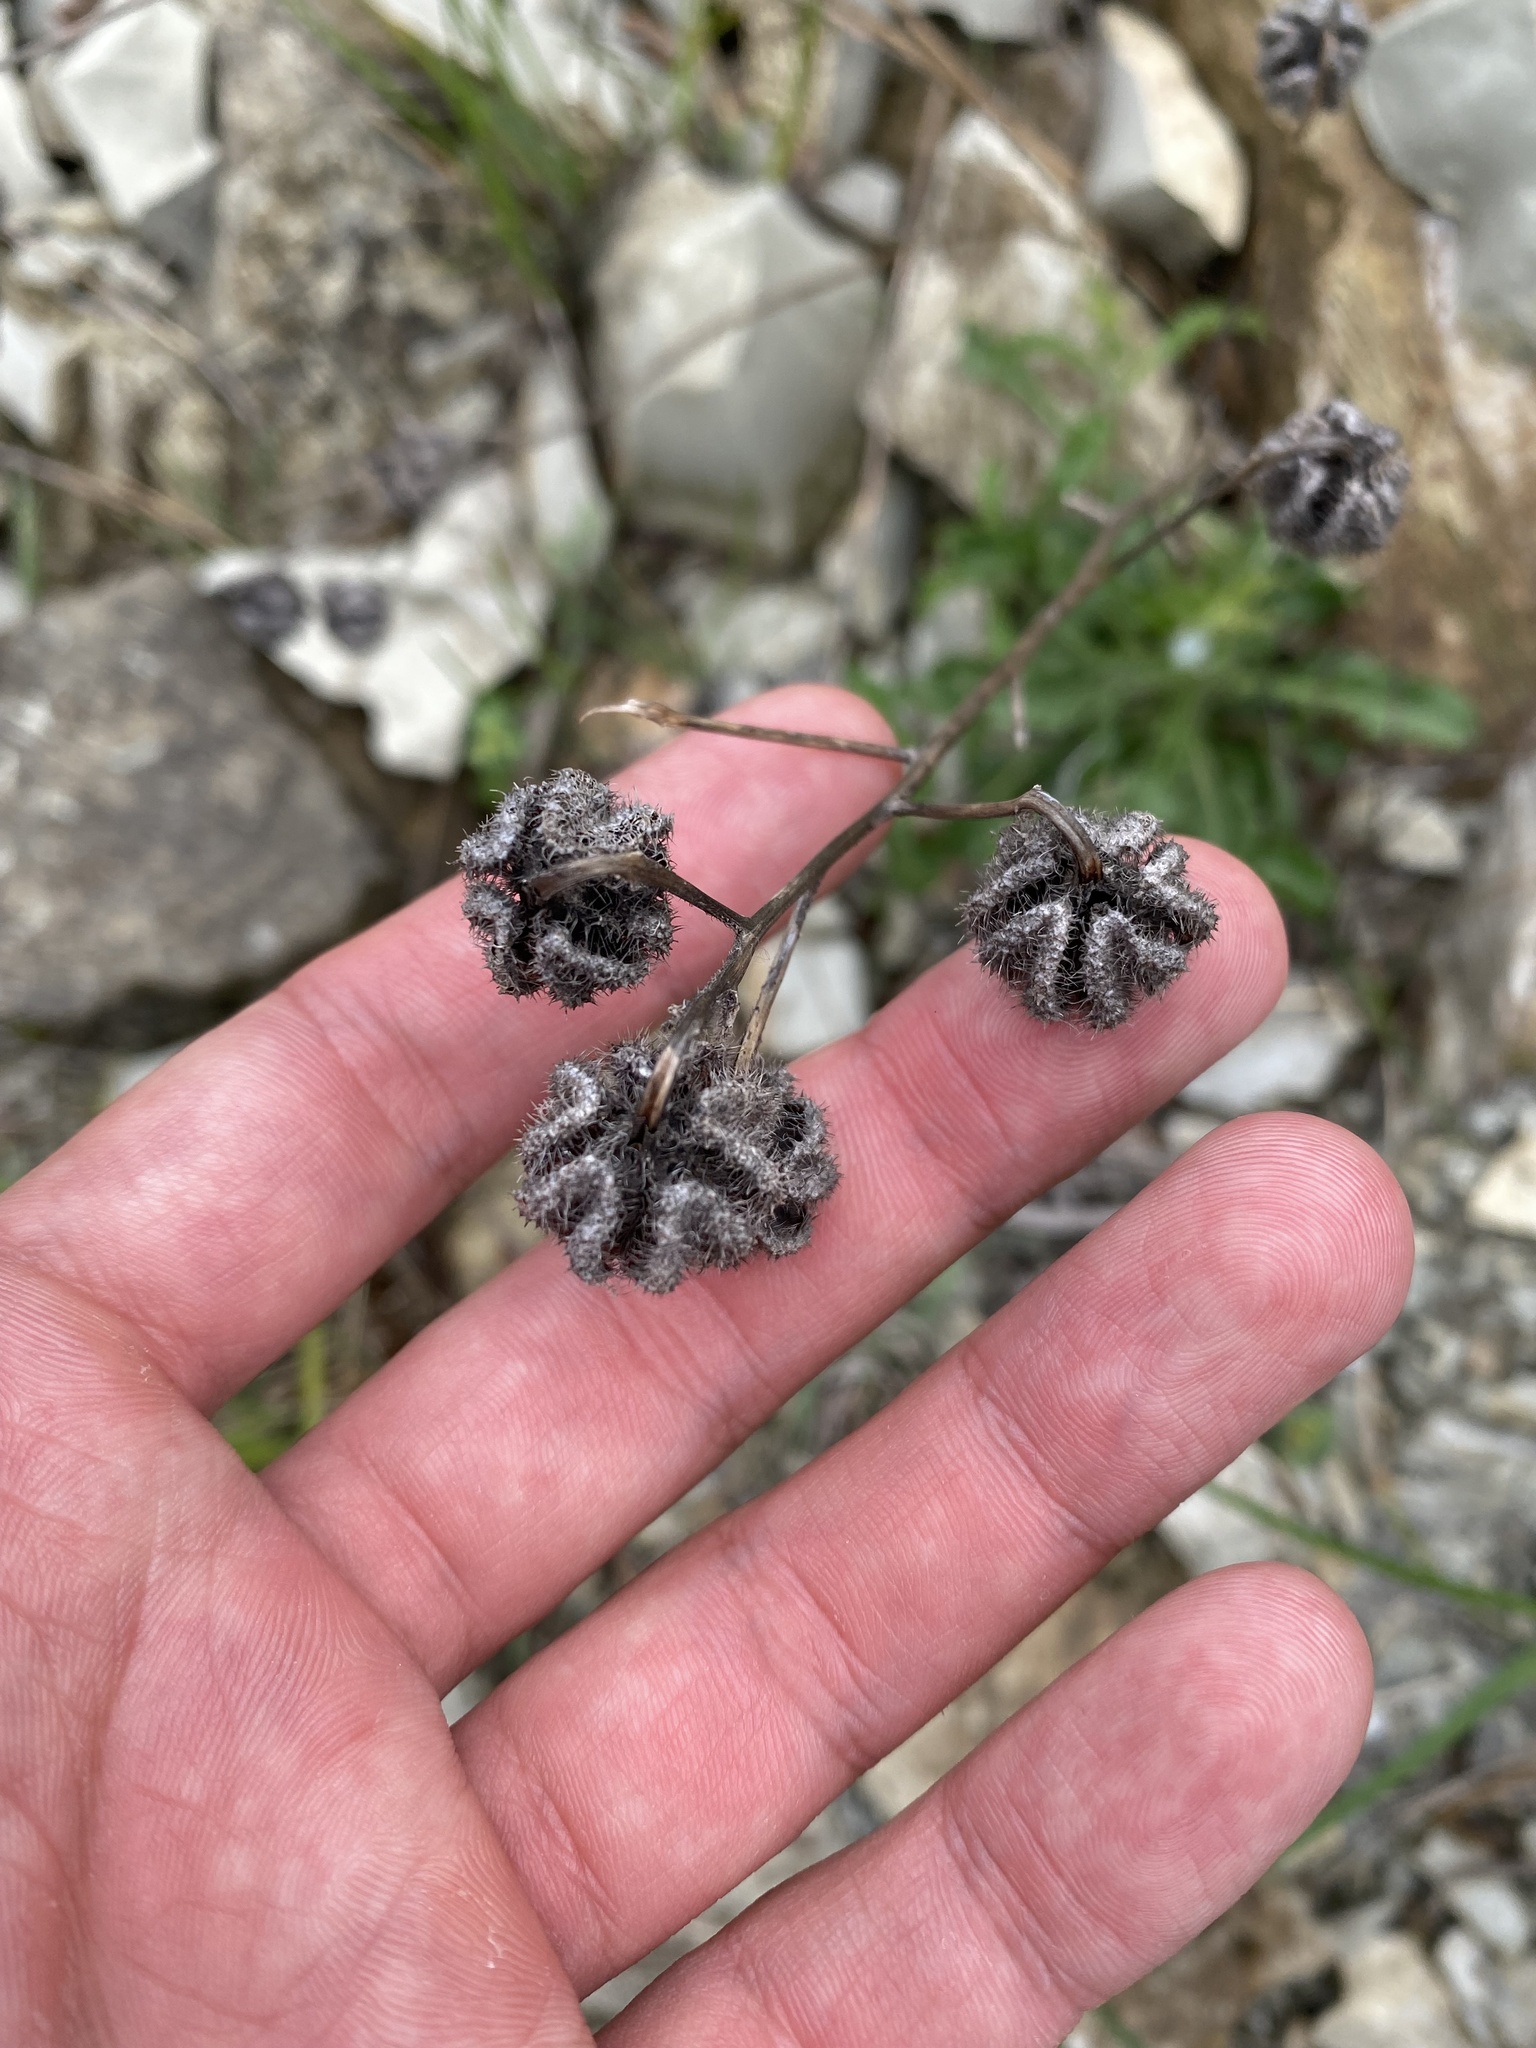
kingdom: Plantae
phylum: Tracheophyta
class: Magnoliopsida
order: Asterales
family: Campanulaceae
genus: Campanula
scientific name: Campanula komarovii
